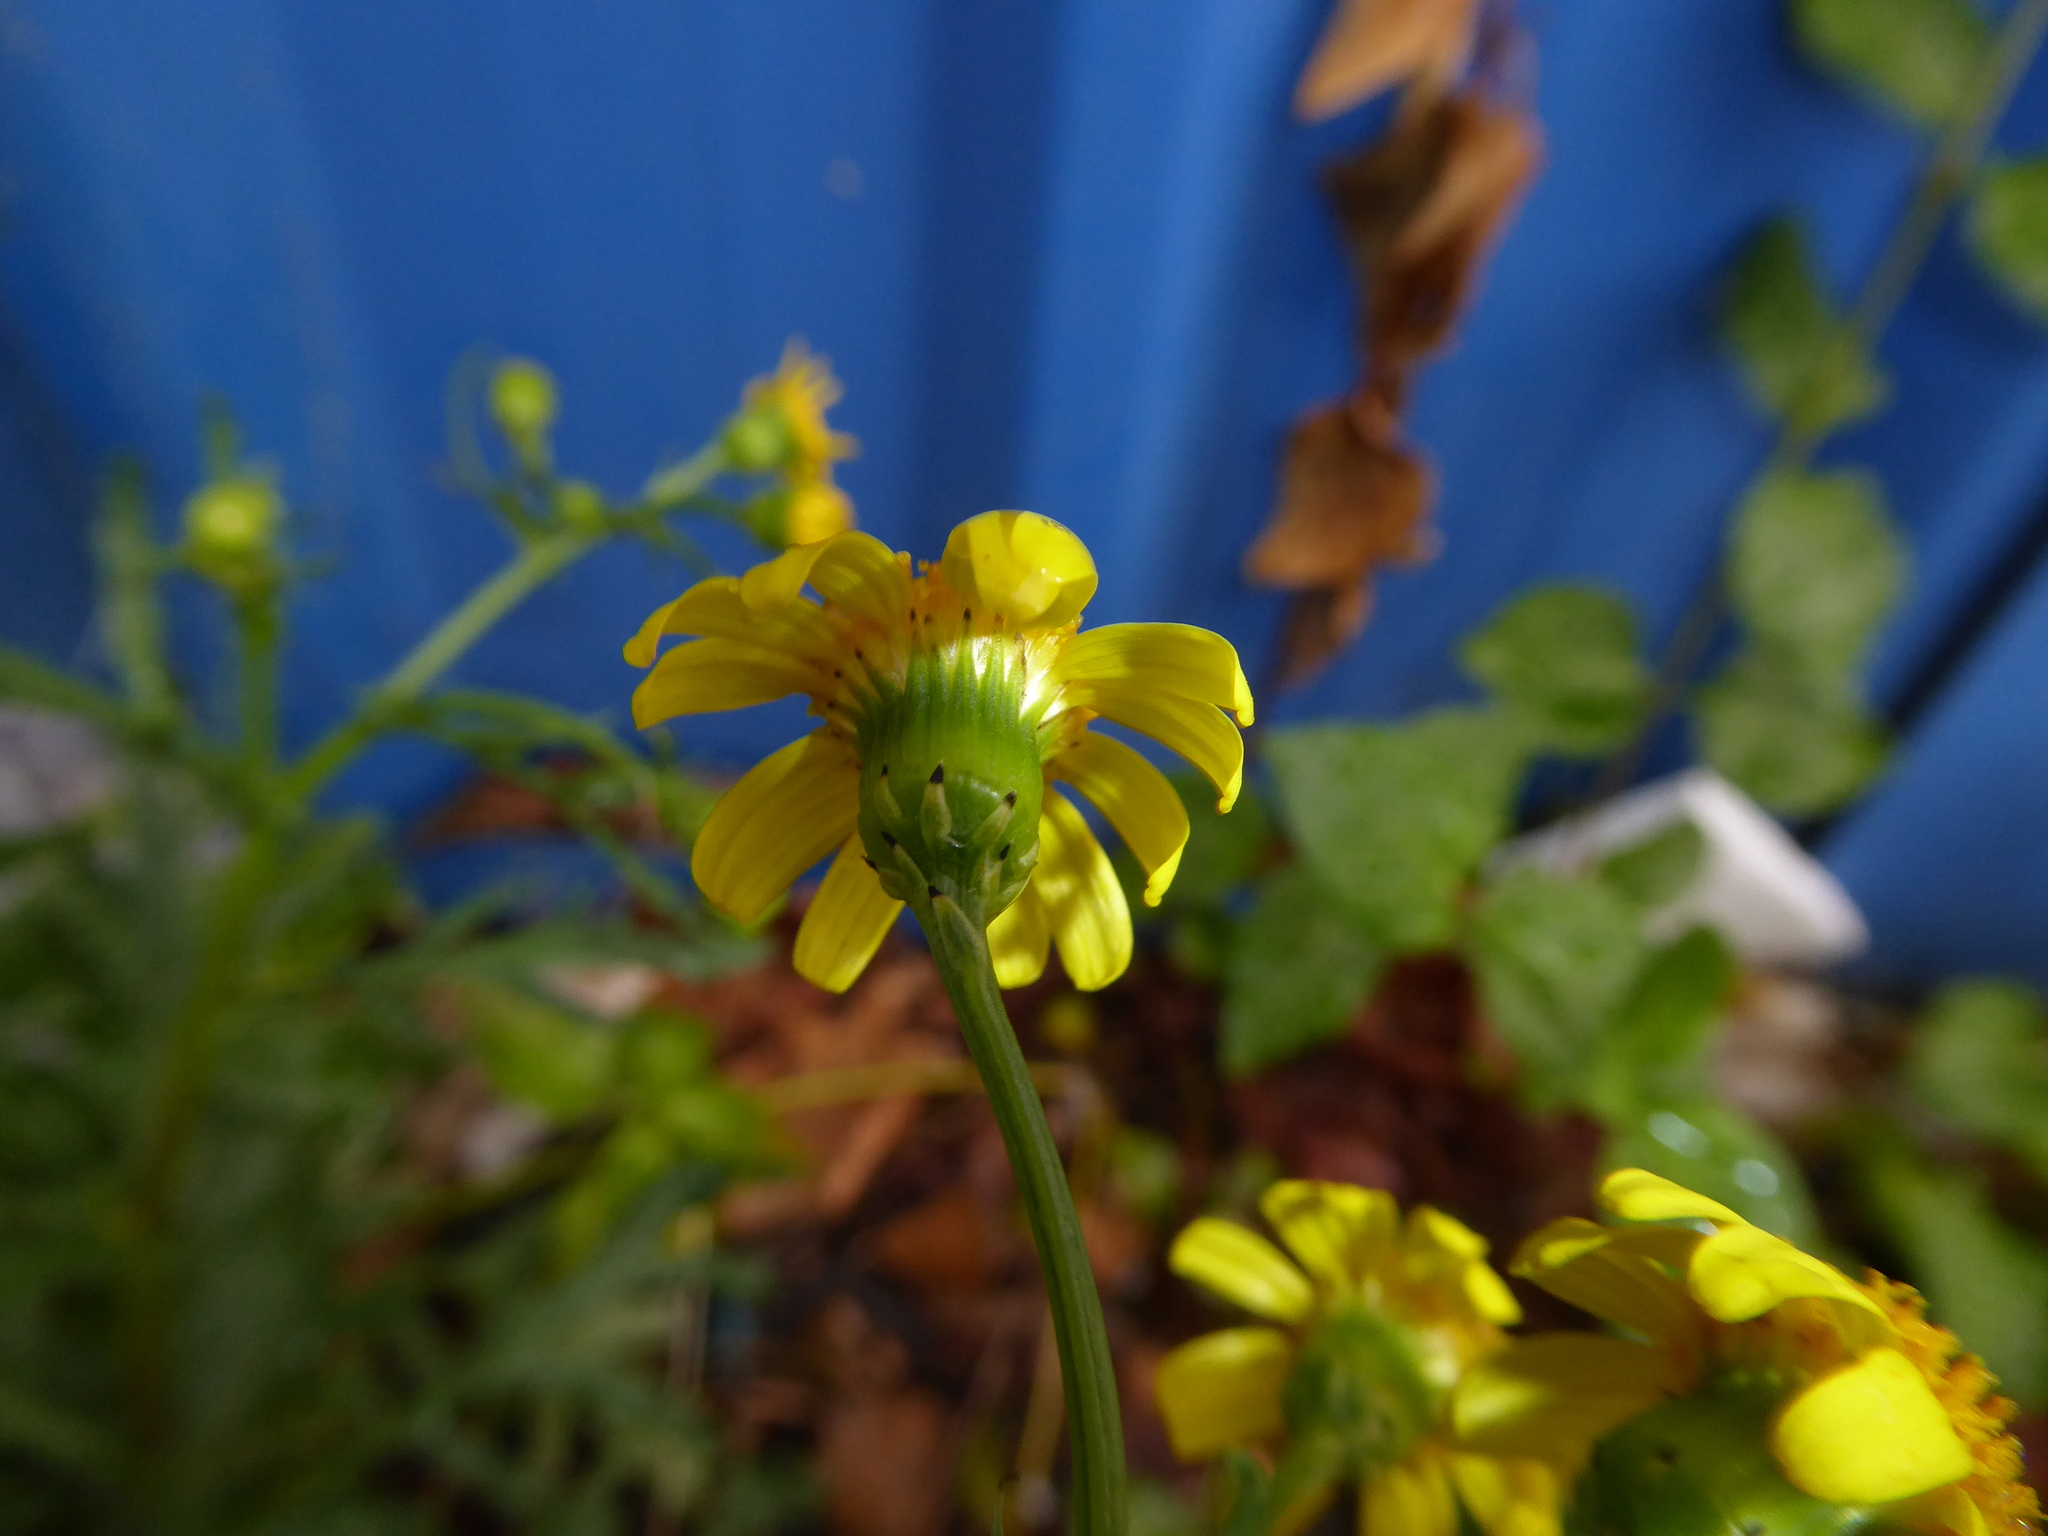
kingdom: Plantae
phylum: Tracheophyta
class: Magnoliopsida
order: Asterales
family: Asteraceae
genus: Senecio
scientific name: Senecio squalidus
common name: Oxford ragwort
